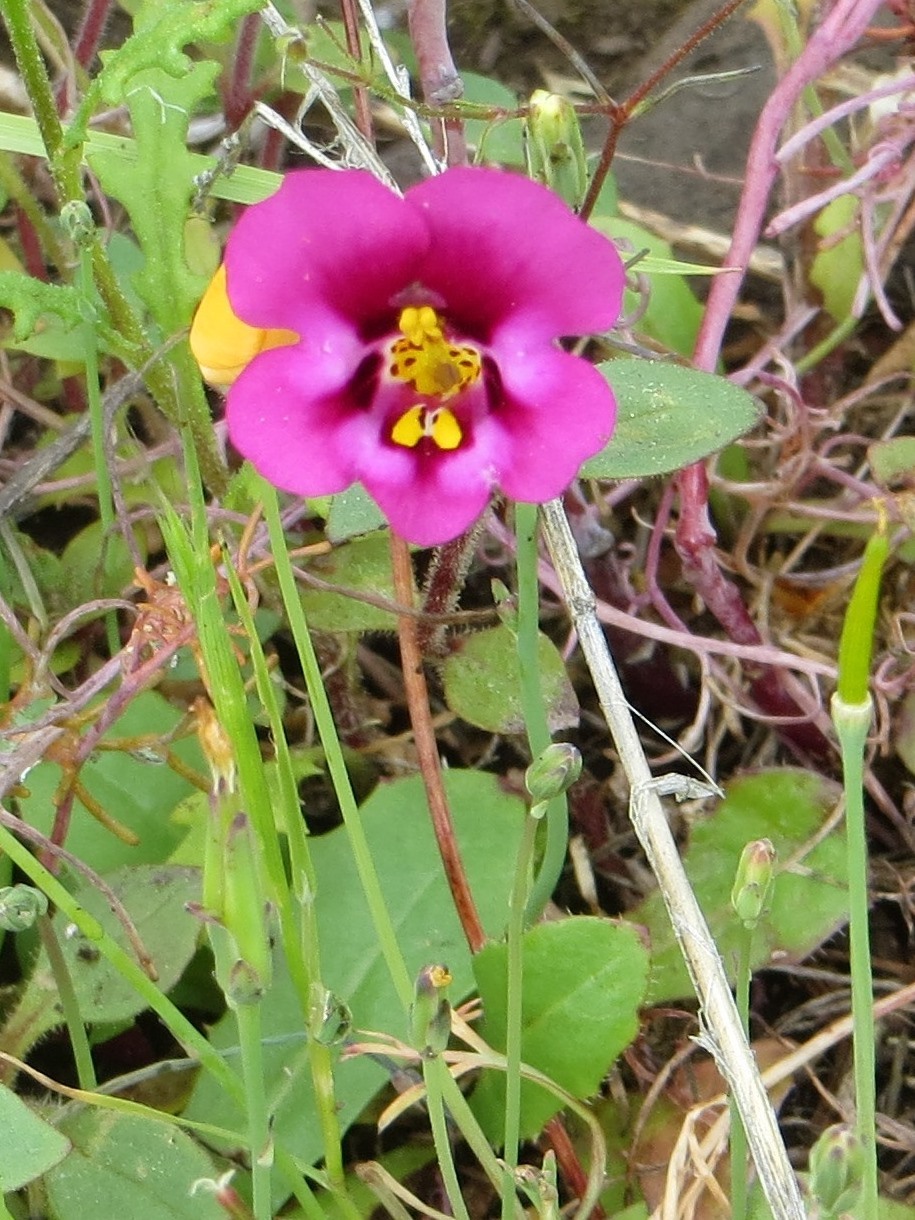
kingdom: Plantae
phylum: Tracheophyta
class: Magnoliopsida
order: Lamiales
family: Phrymaceae
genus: Diplacus
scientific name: Diplacus kelloggii
